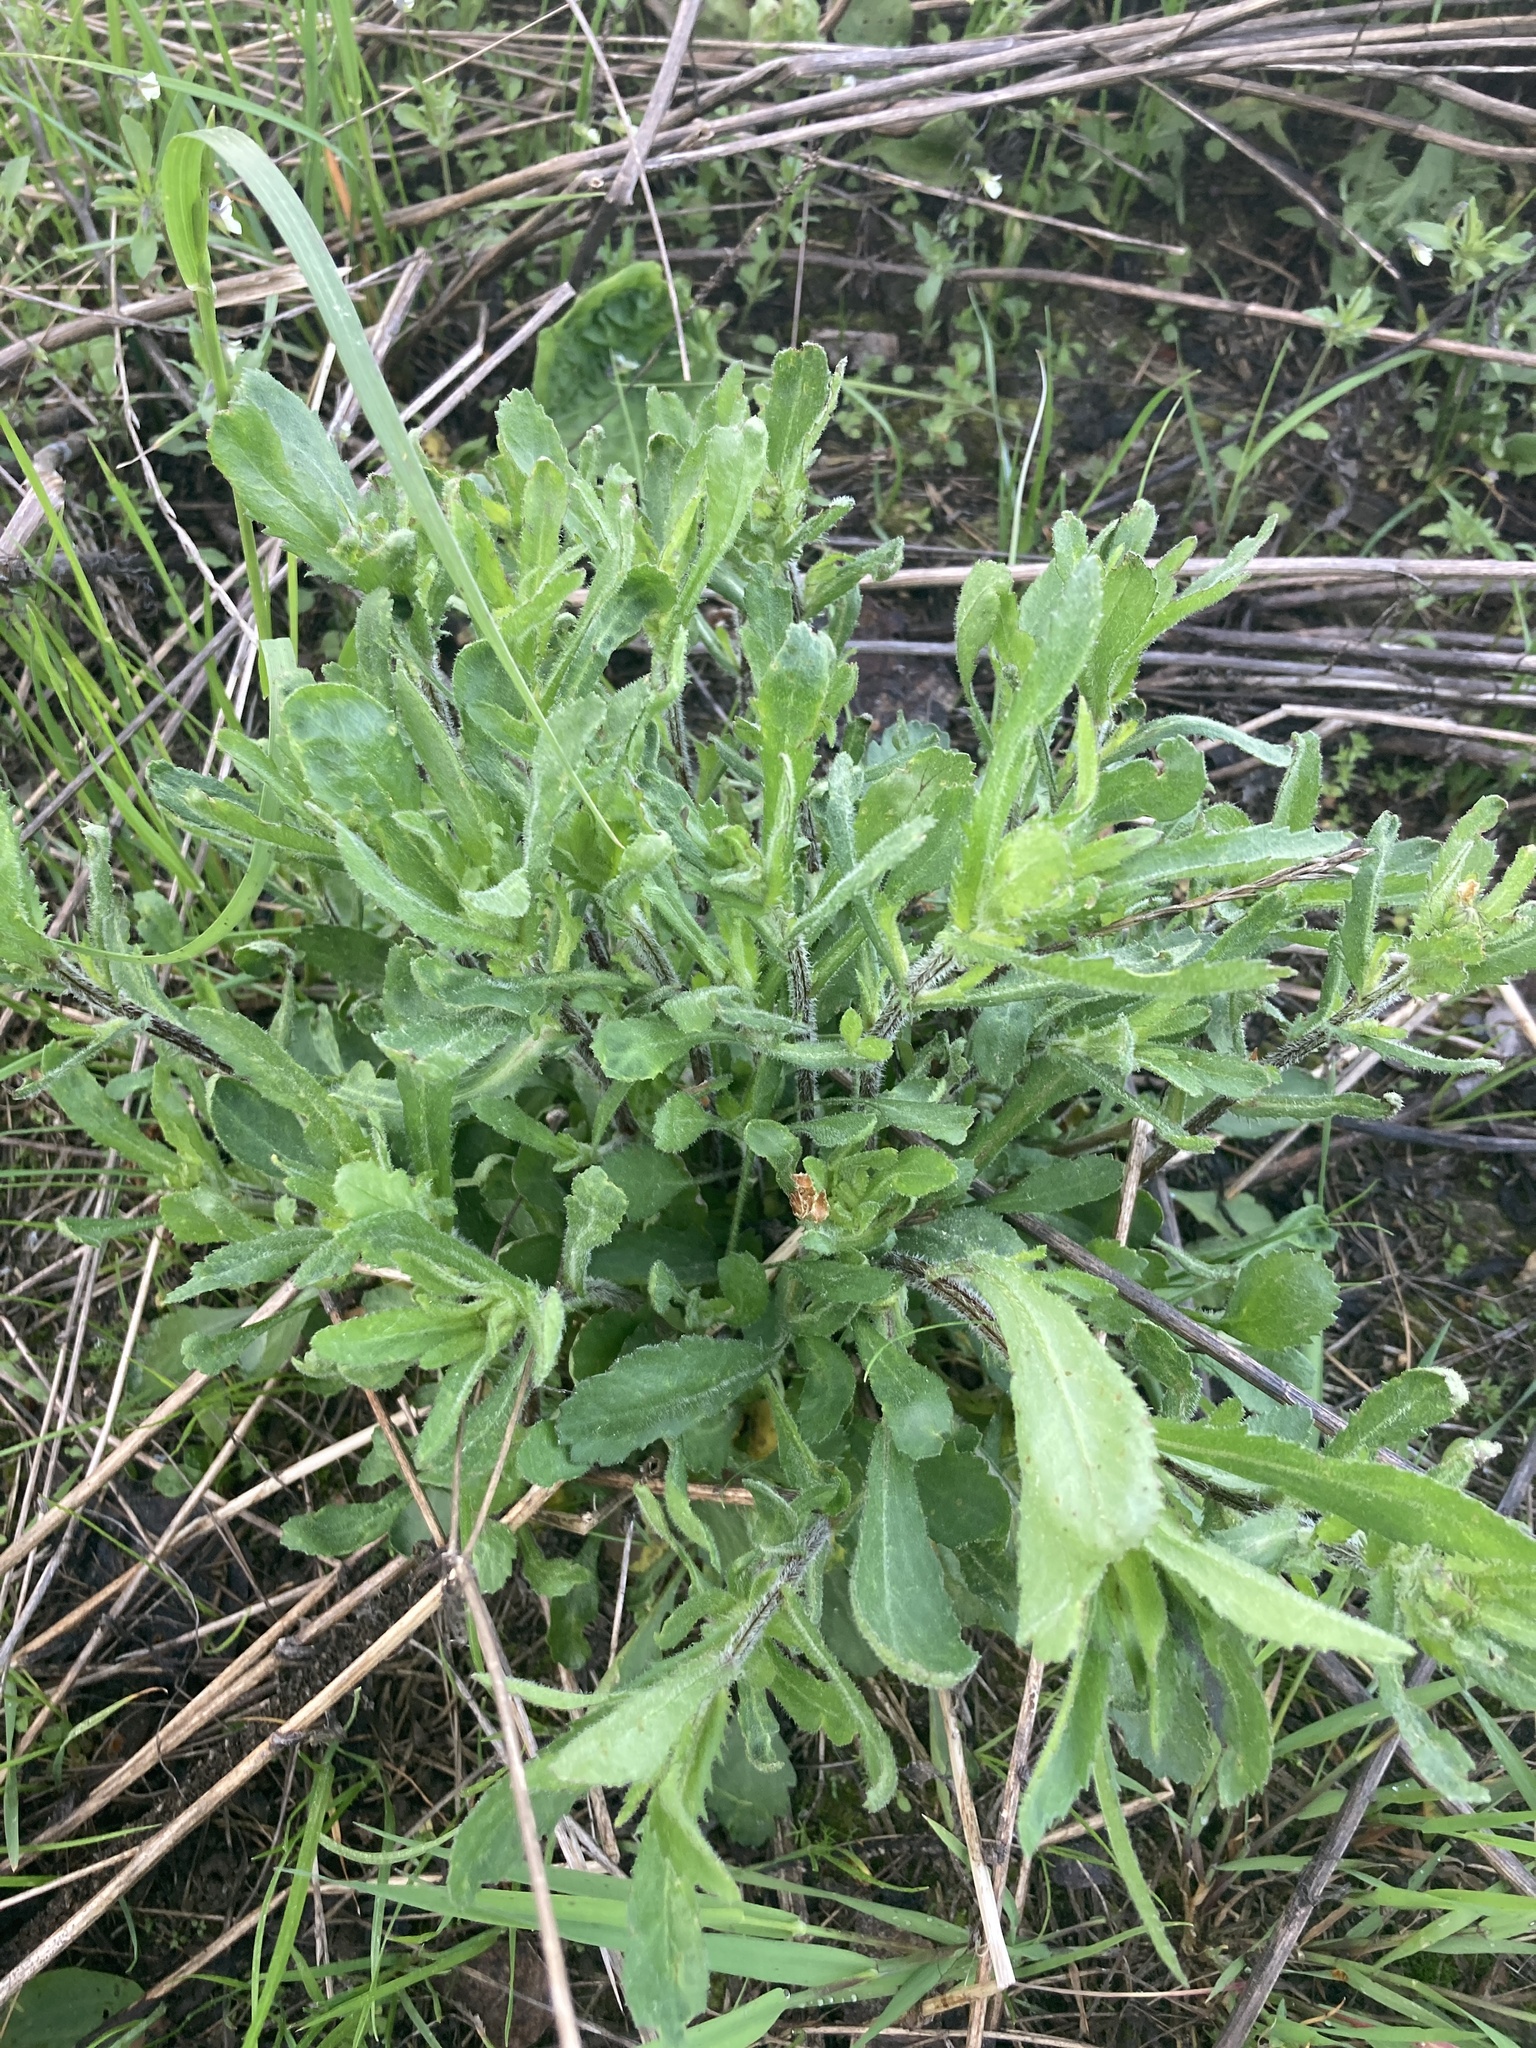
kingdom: Plantae
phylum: Tracheophyta
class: Magnoliopsida
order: Asterales
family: Asteraceae
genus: Leucanthemum
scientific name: Leucanthemum vulgare
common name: Oxeye daisy
